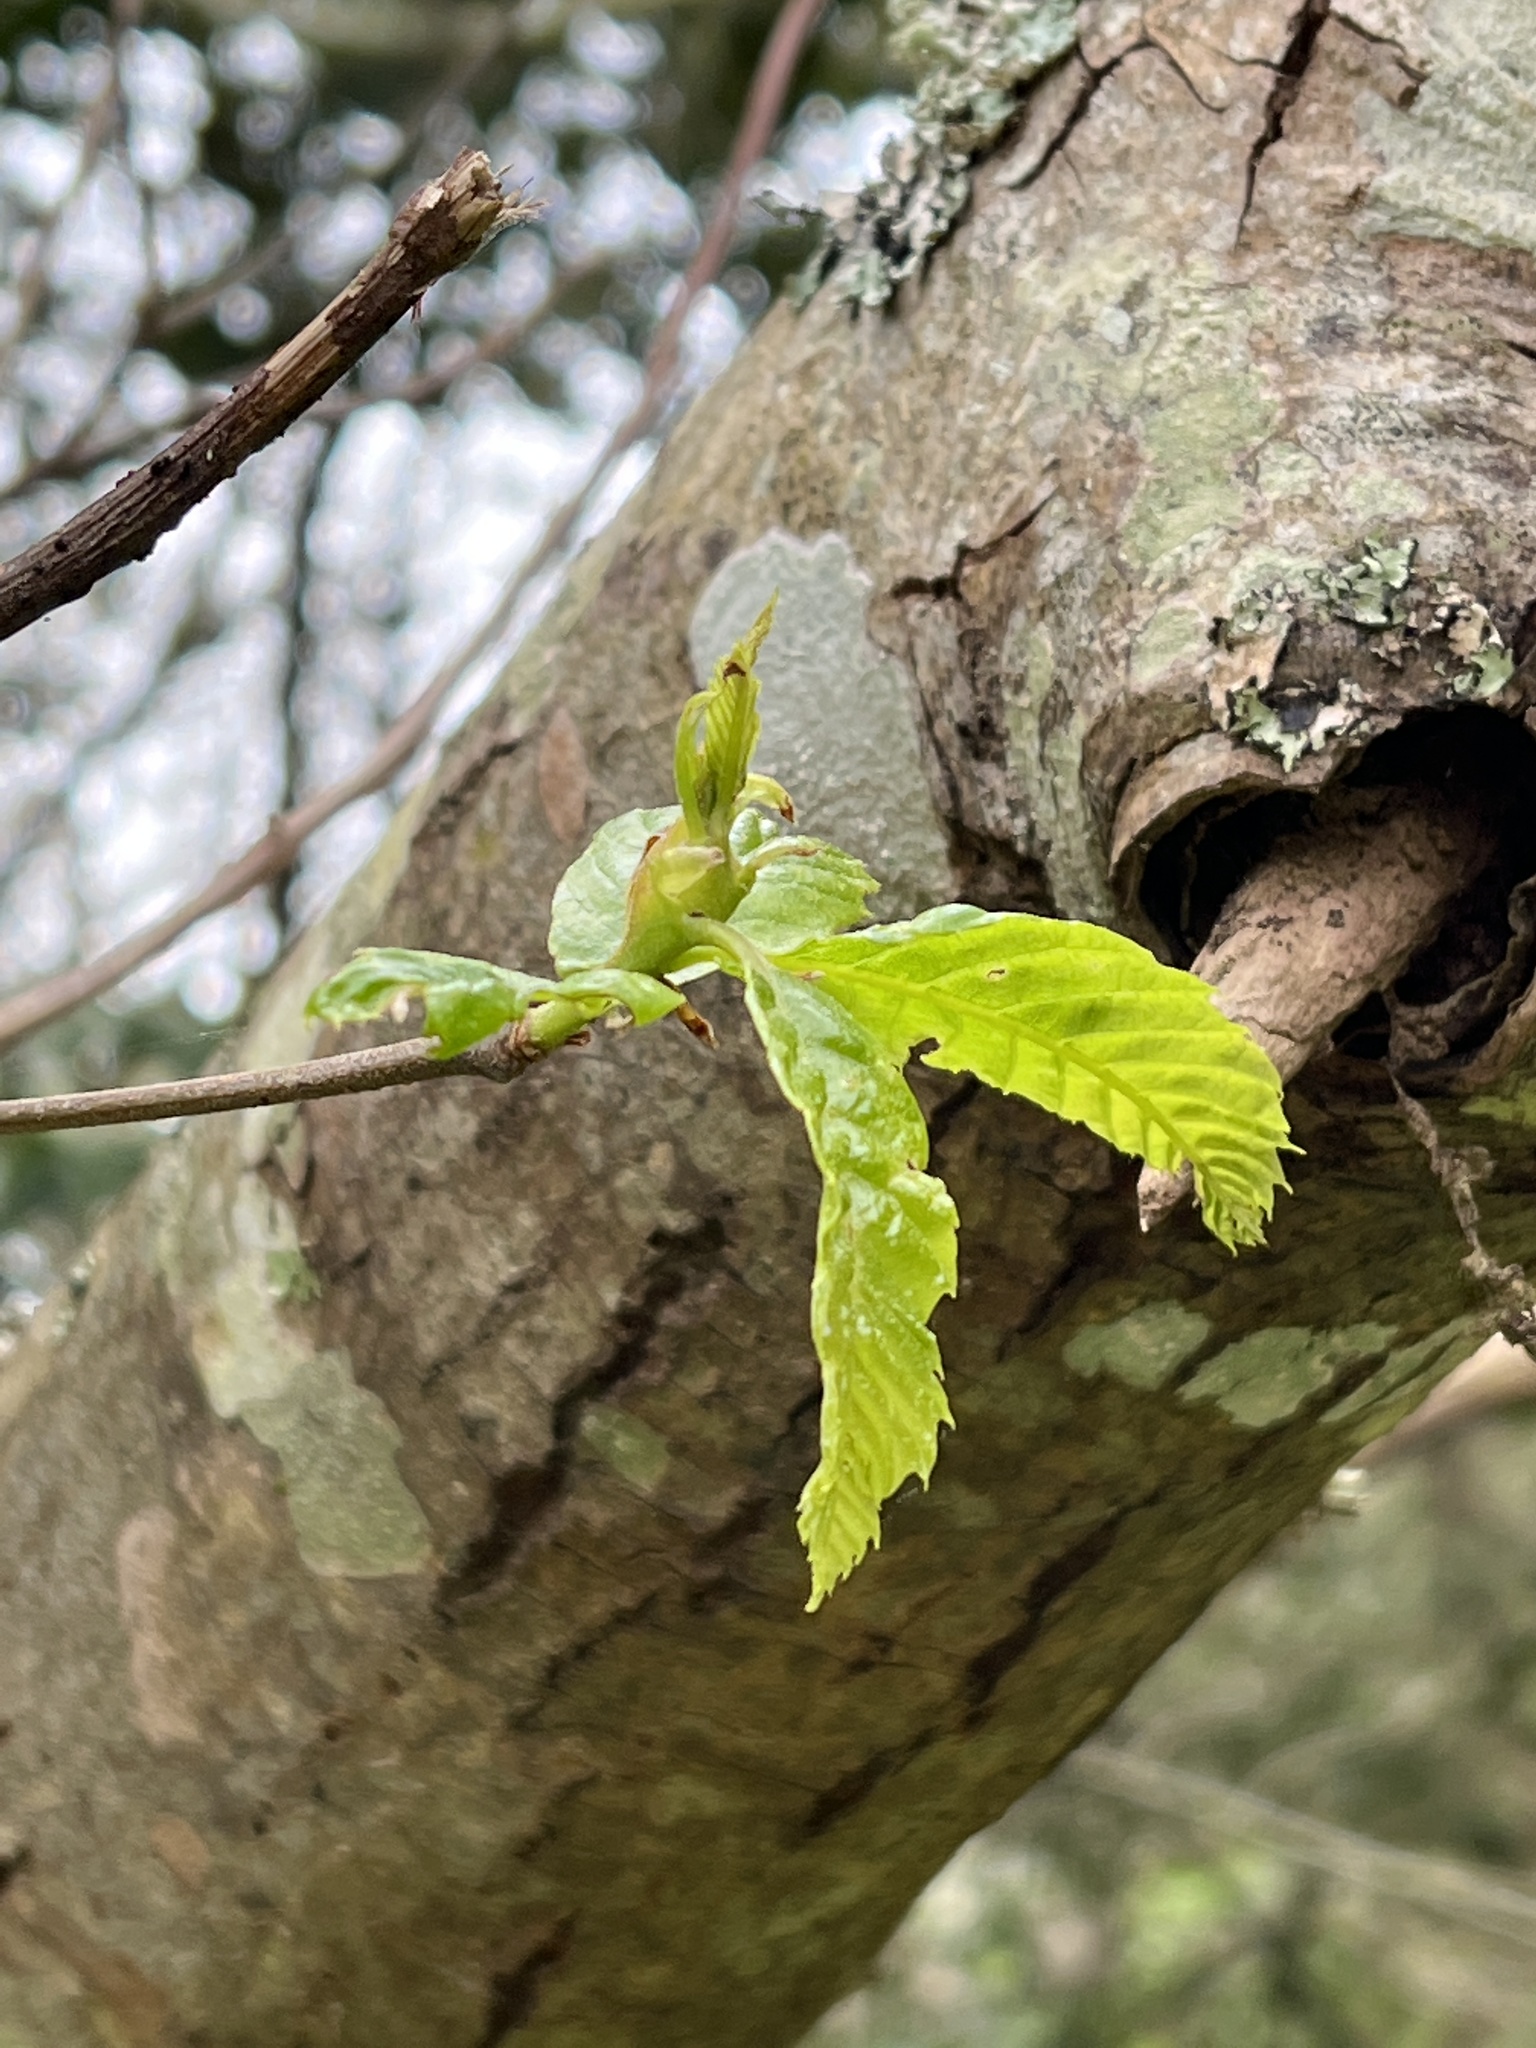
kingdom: Plantae
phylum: Tracheophyta
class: Magnoliopsida
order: Fagales
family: Fagaceae
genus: Castanea
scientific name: Castanea sativa
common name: Sweet chestnut
